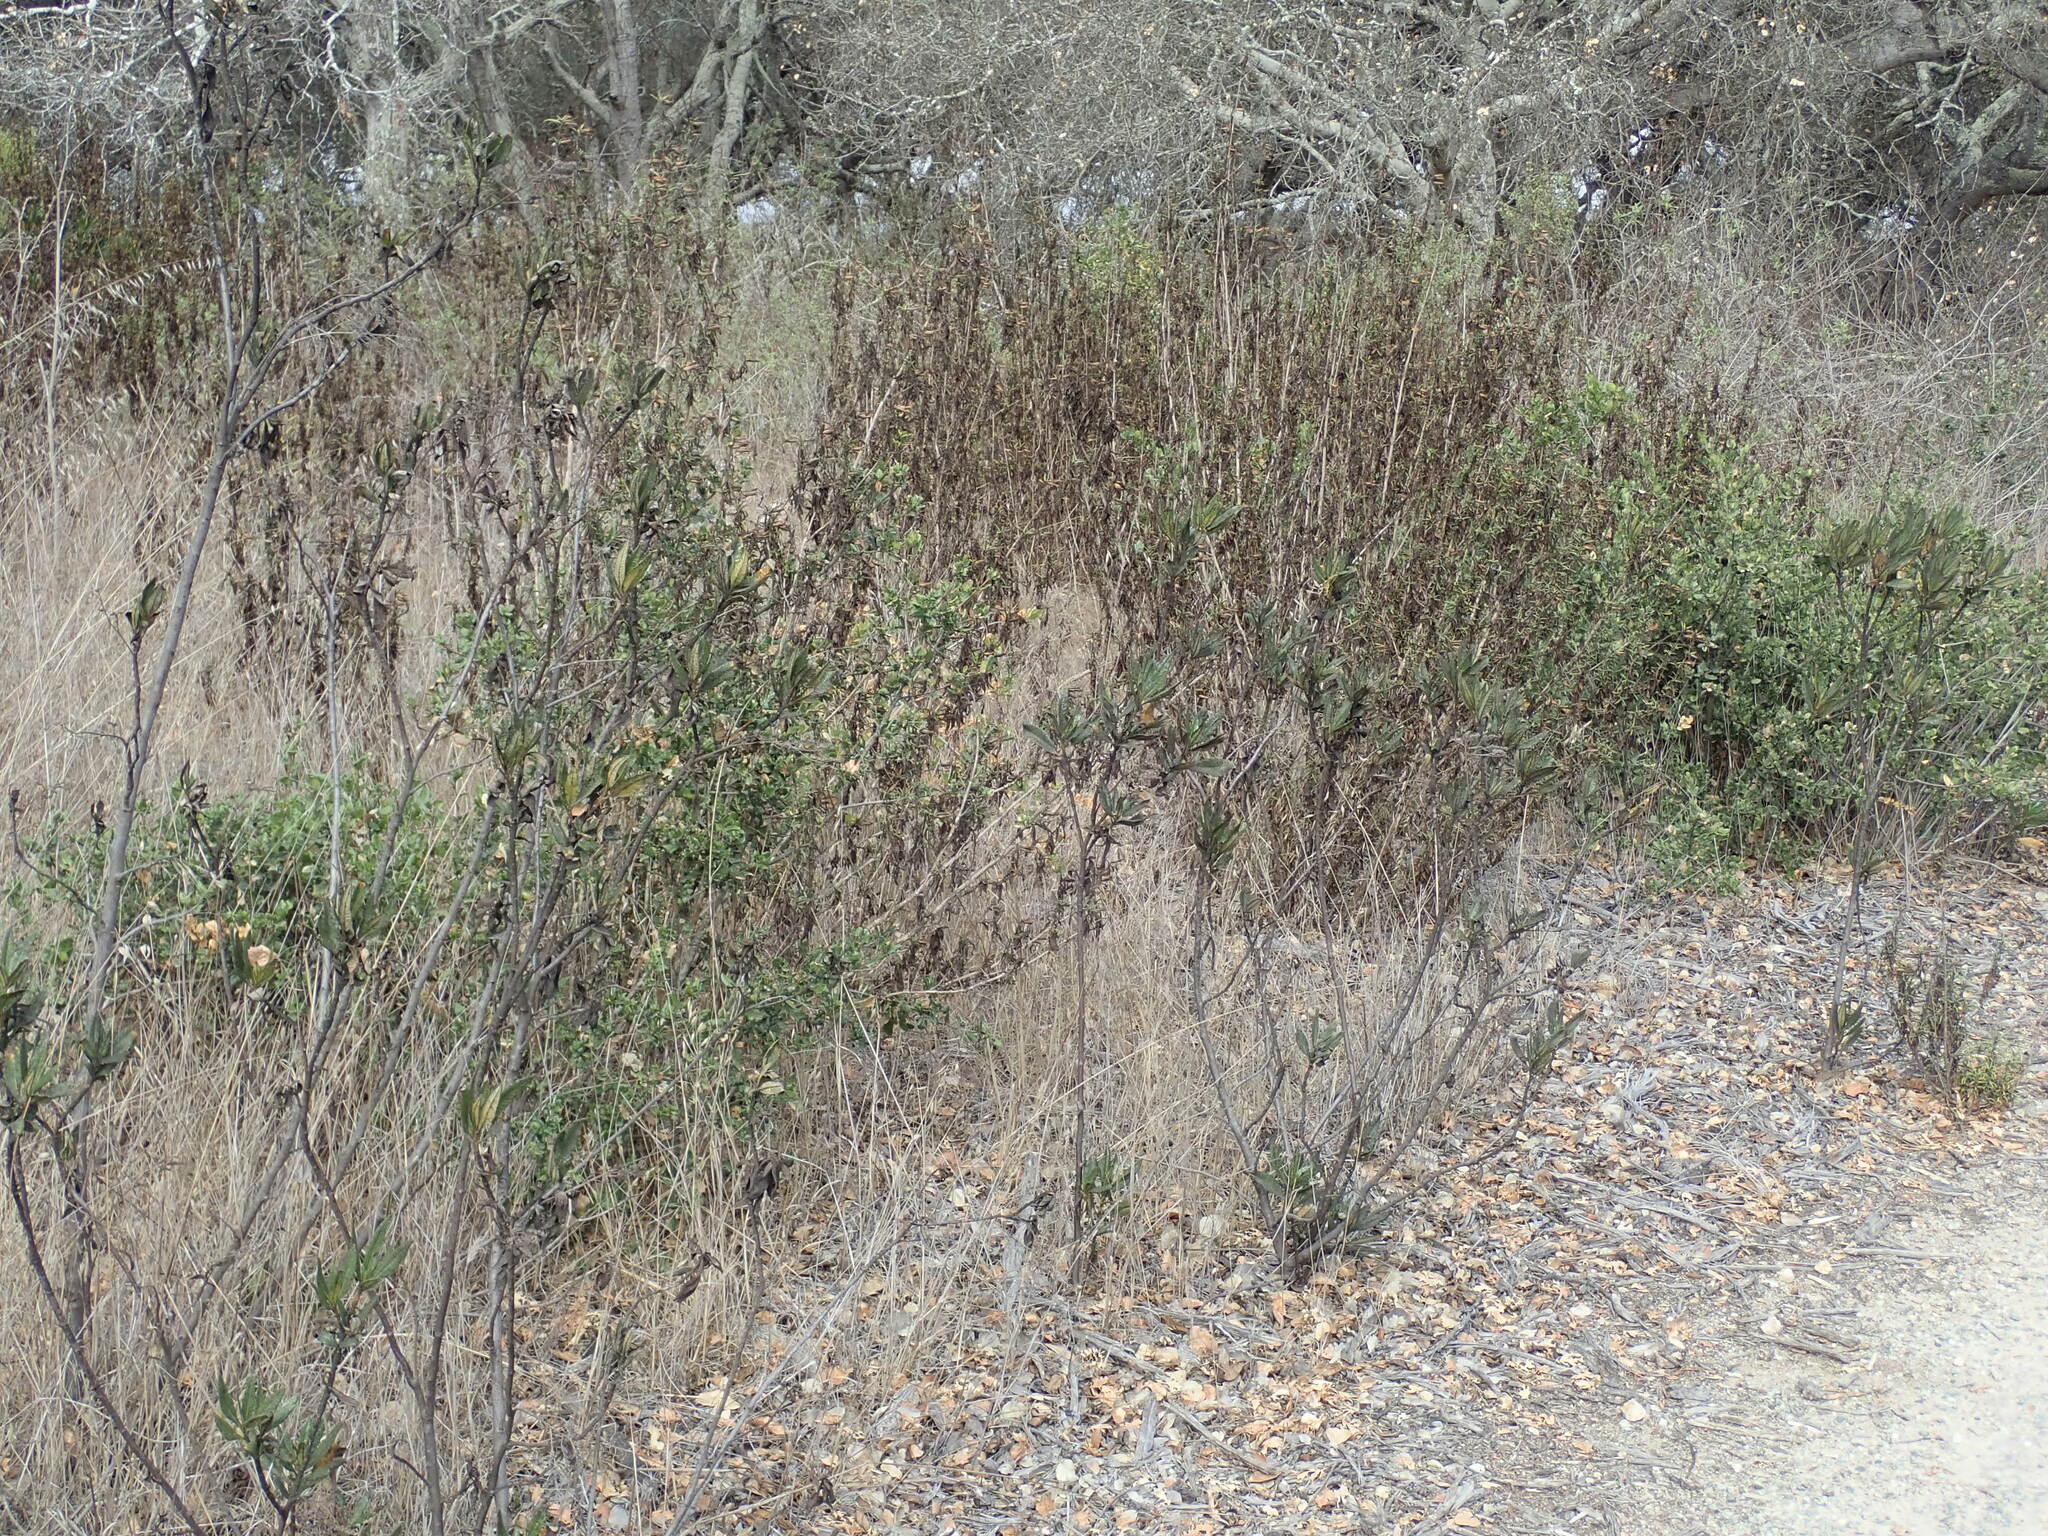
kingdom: Plantae
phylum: Tracheophyta
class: Magnoliopsida
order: Boraginales
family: Namaceae
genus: Eriodictyon
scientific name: Eriodictyon californicum
